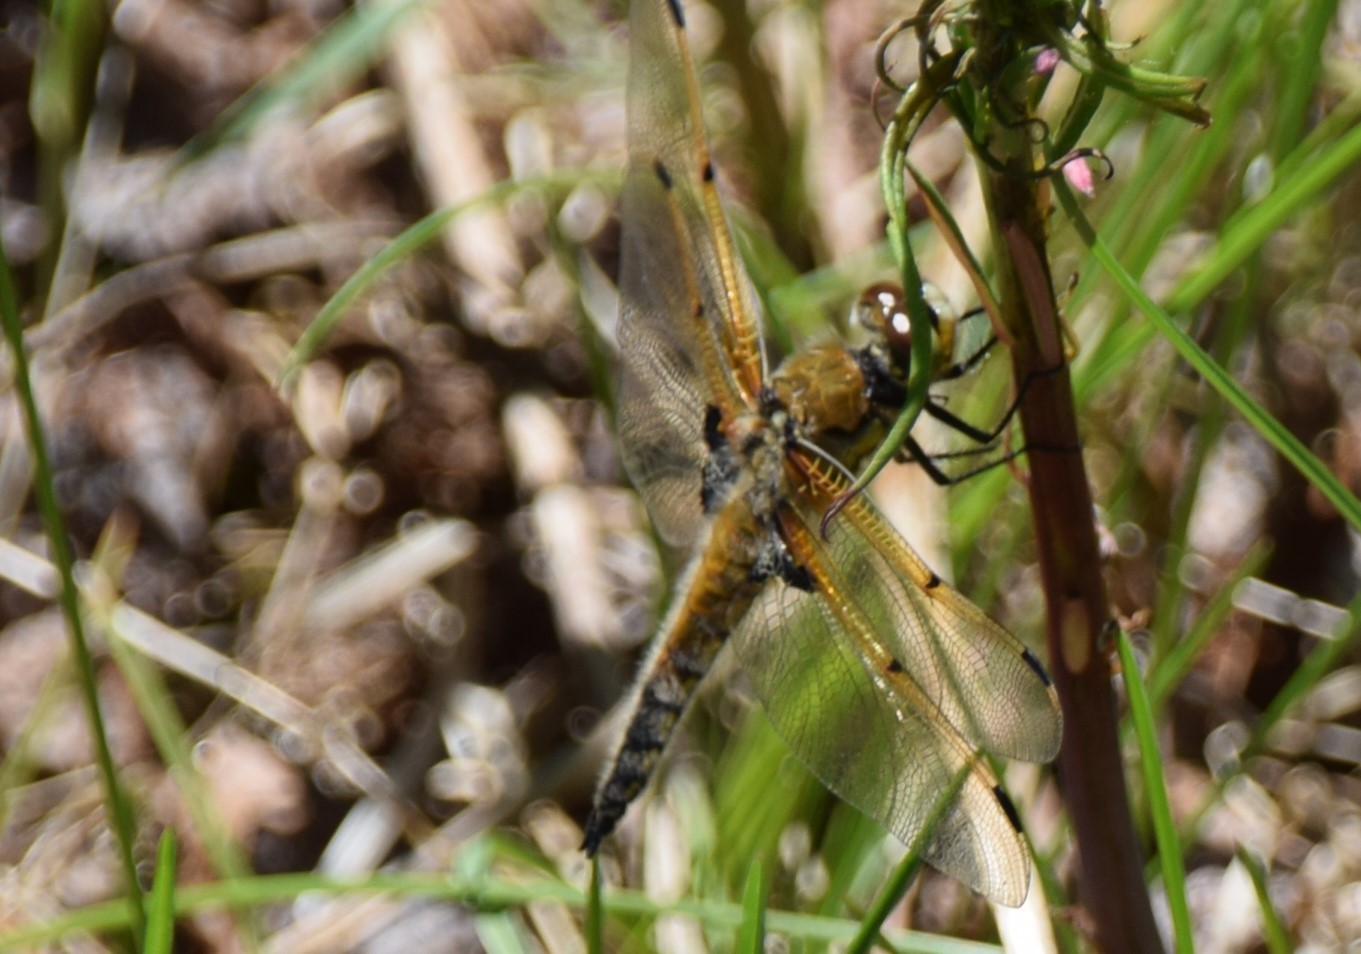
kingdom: Animalia
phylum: Arthropoda
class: Insecta
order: Odonata
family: Libellulidae
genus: Libellula
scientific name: Libellula quadrimaculata
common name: Four-spotted chaser
